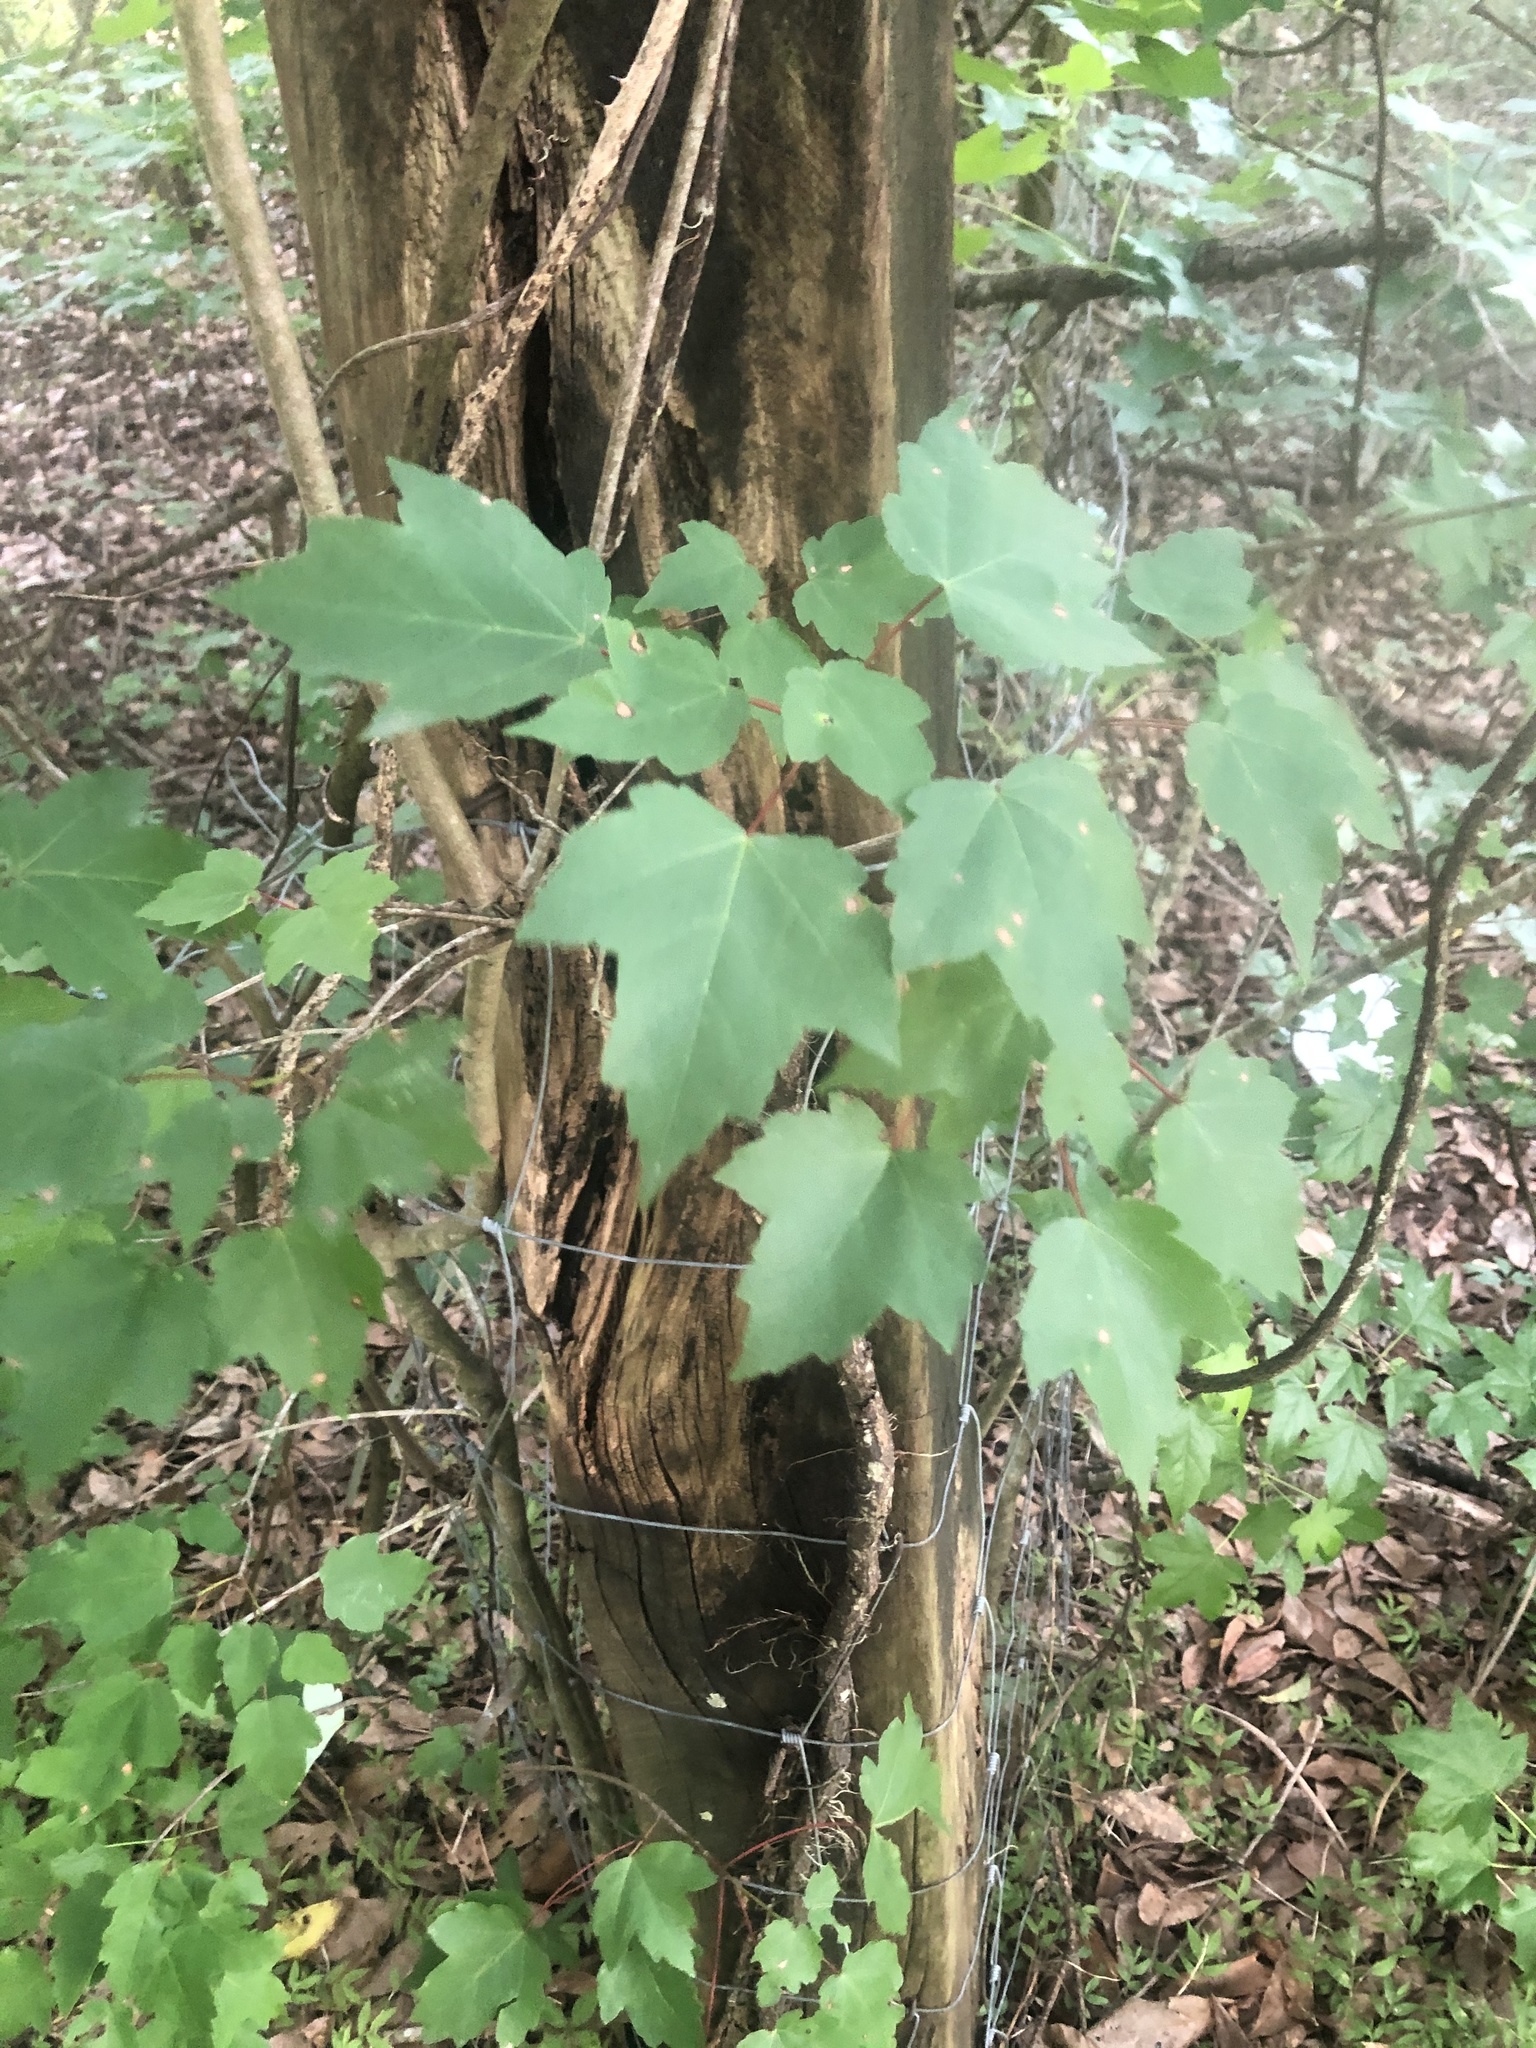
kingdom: Plantae
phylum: Tracheophyta
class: Magnoliopsida
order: Sapindales
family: Sapindaceae
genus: Acer
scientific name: Acer rubrum
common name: Red maple
